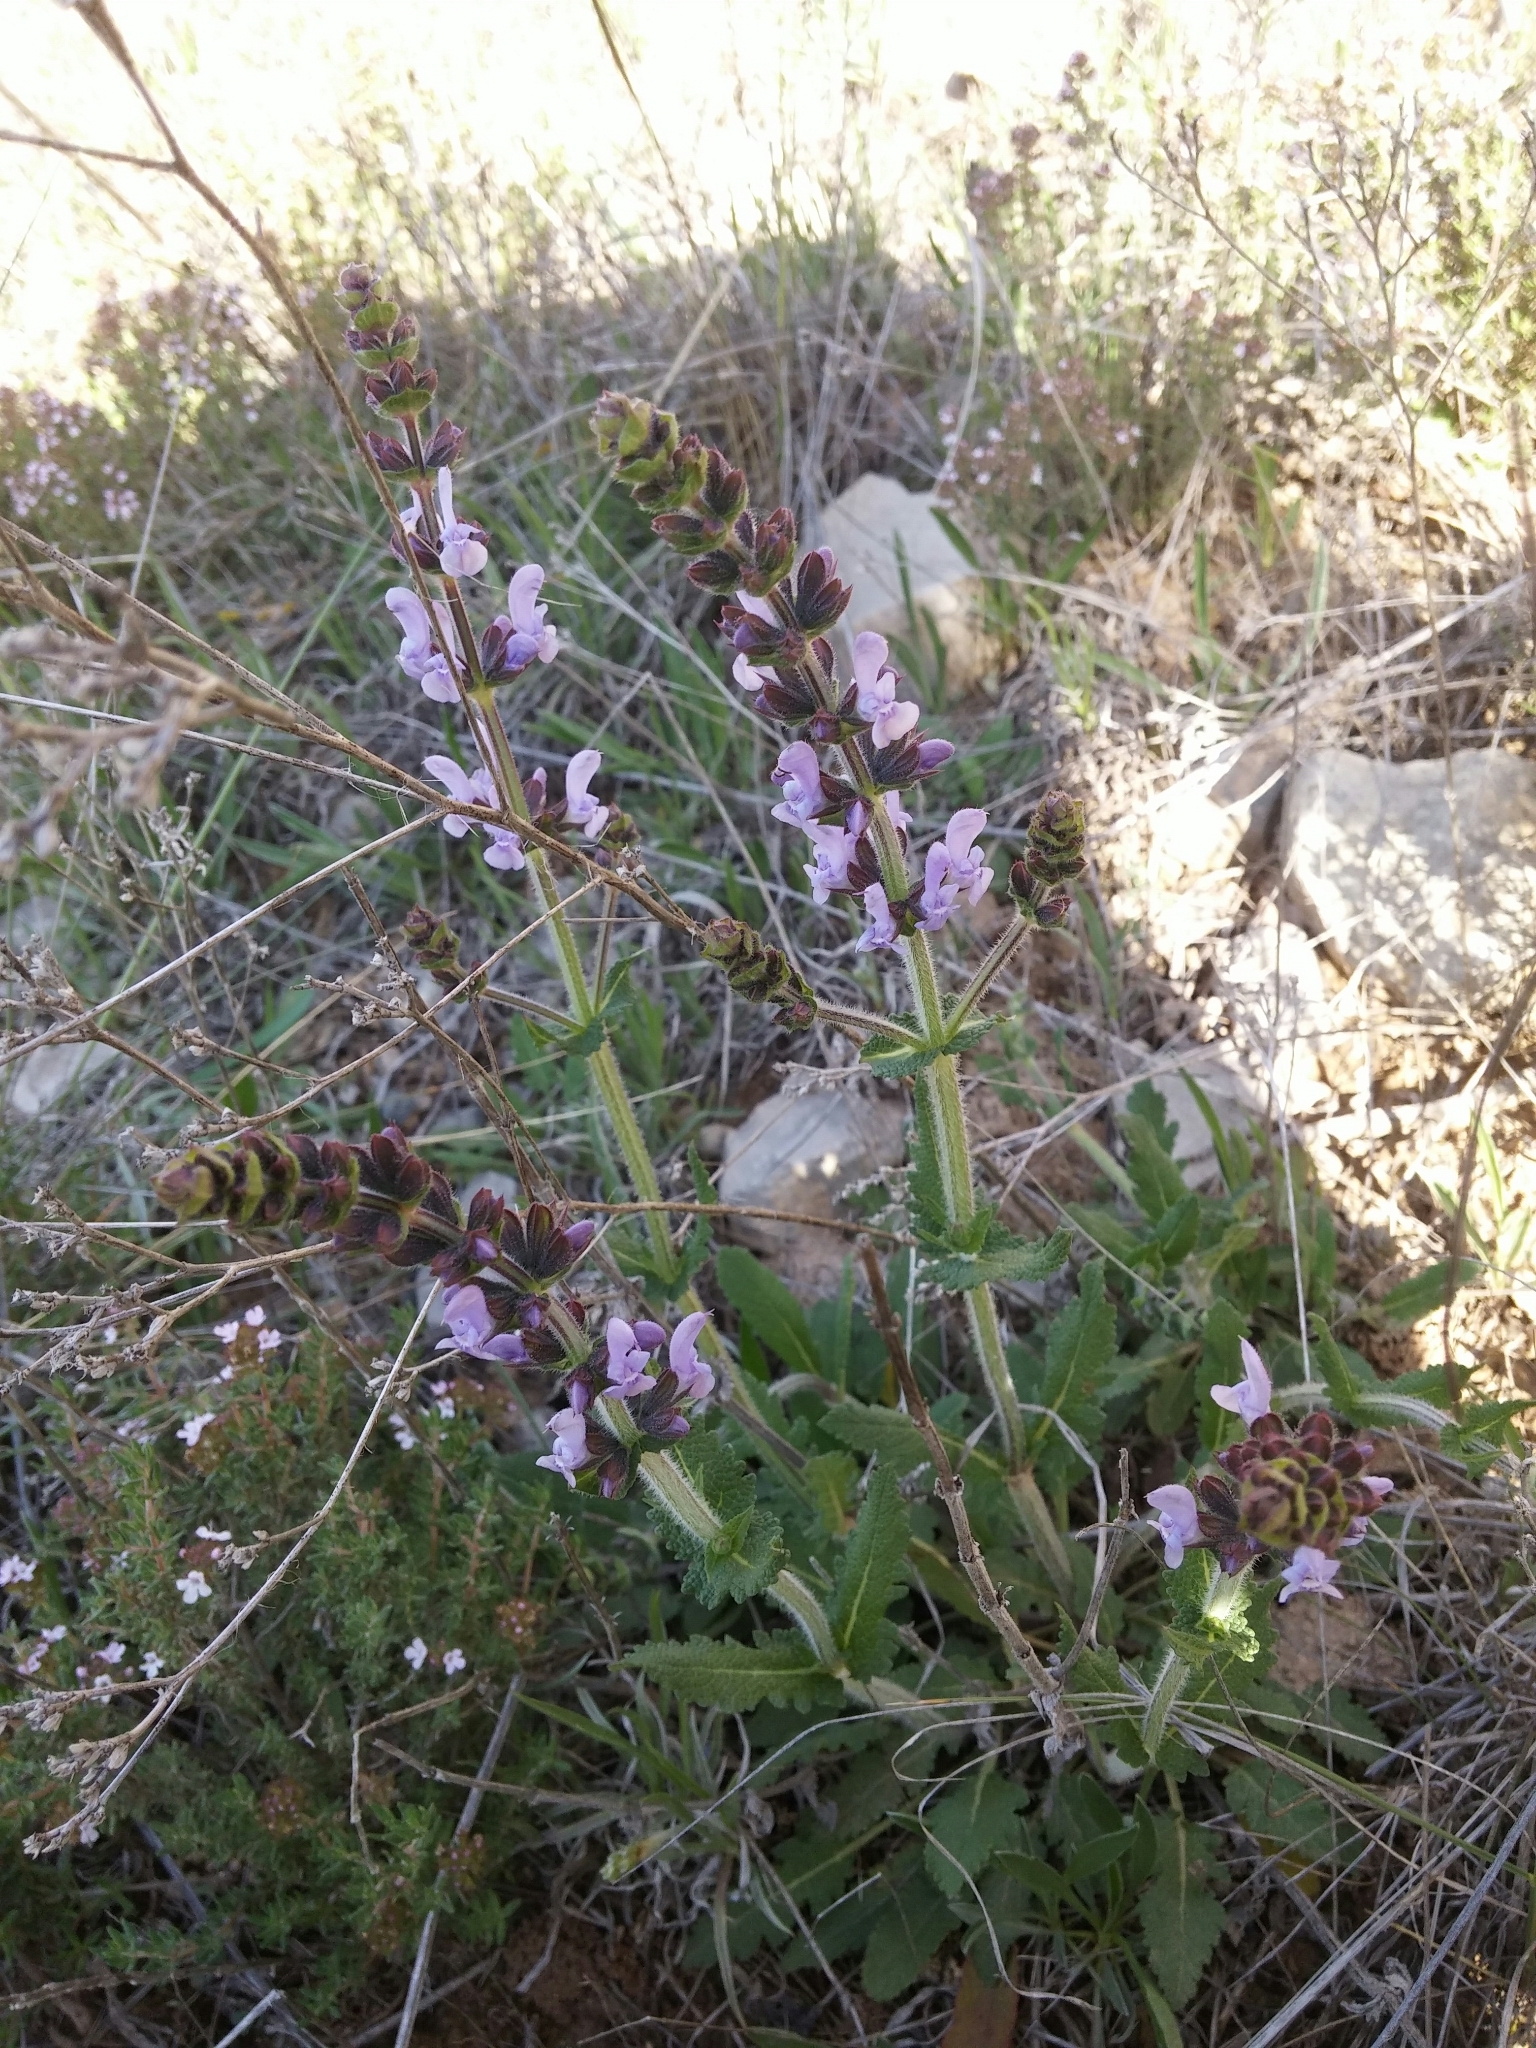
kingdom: Plantae
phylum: Tracheophyta
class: Magnoliopsida
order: Lamiales
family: Lamiaceae
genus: Salvia
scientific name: Salvia verbenaca
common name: Wild clary
